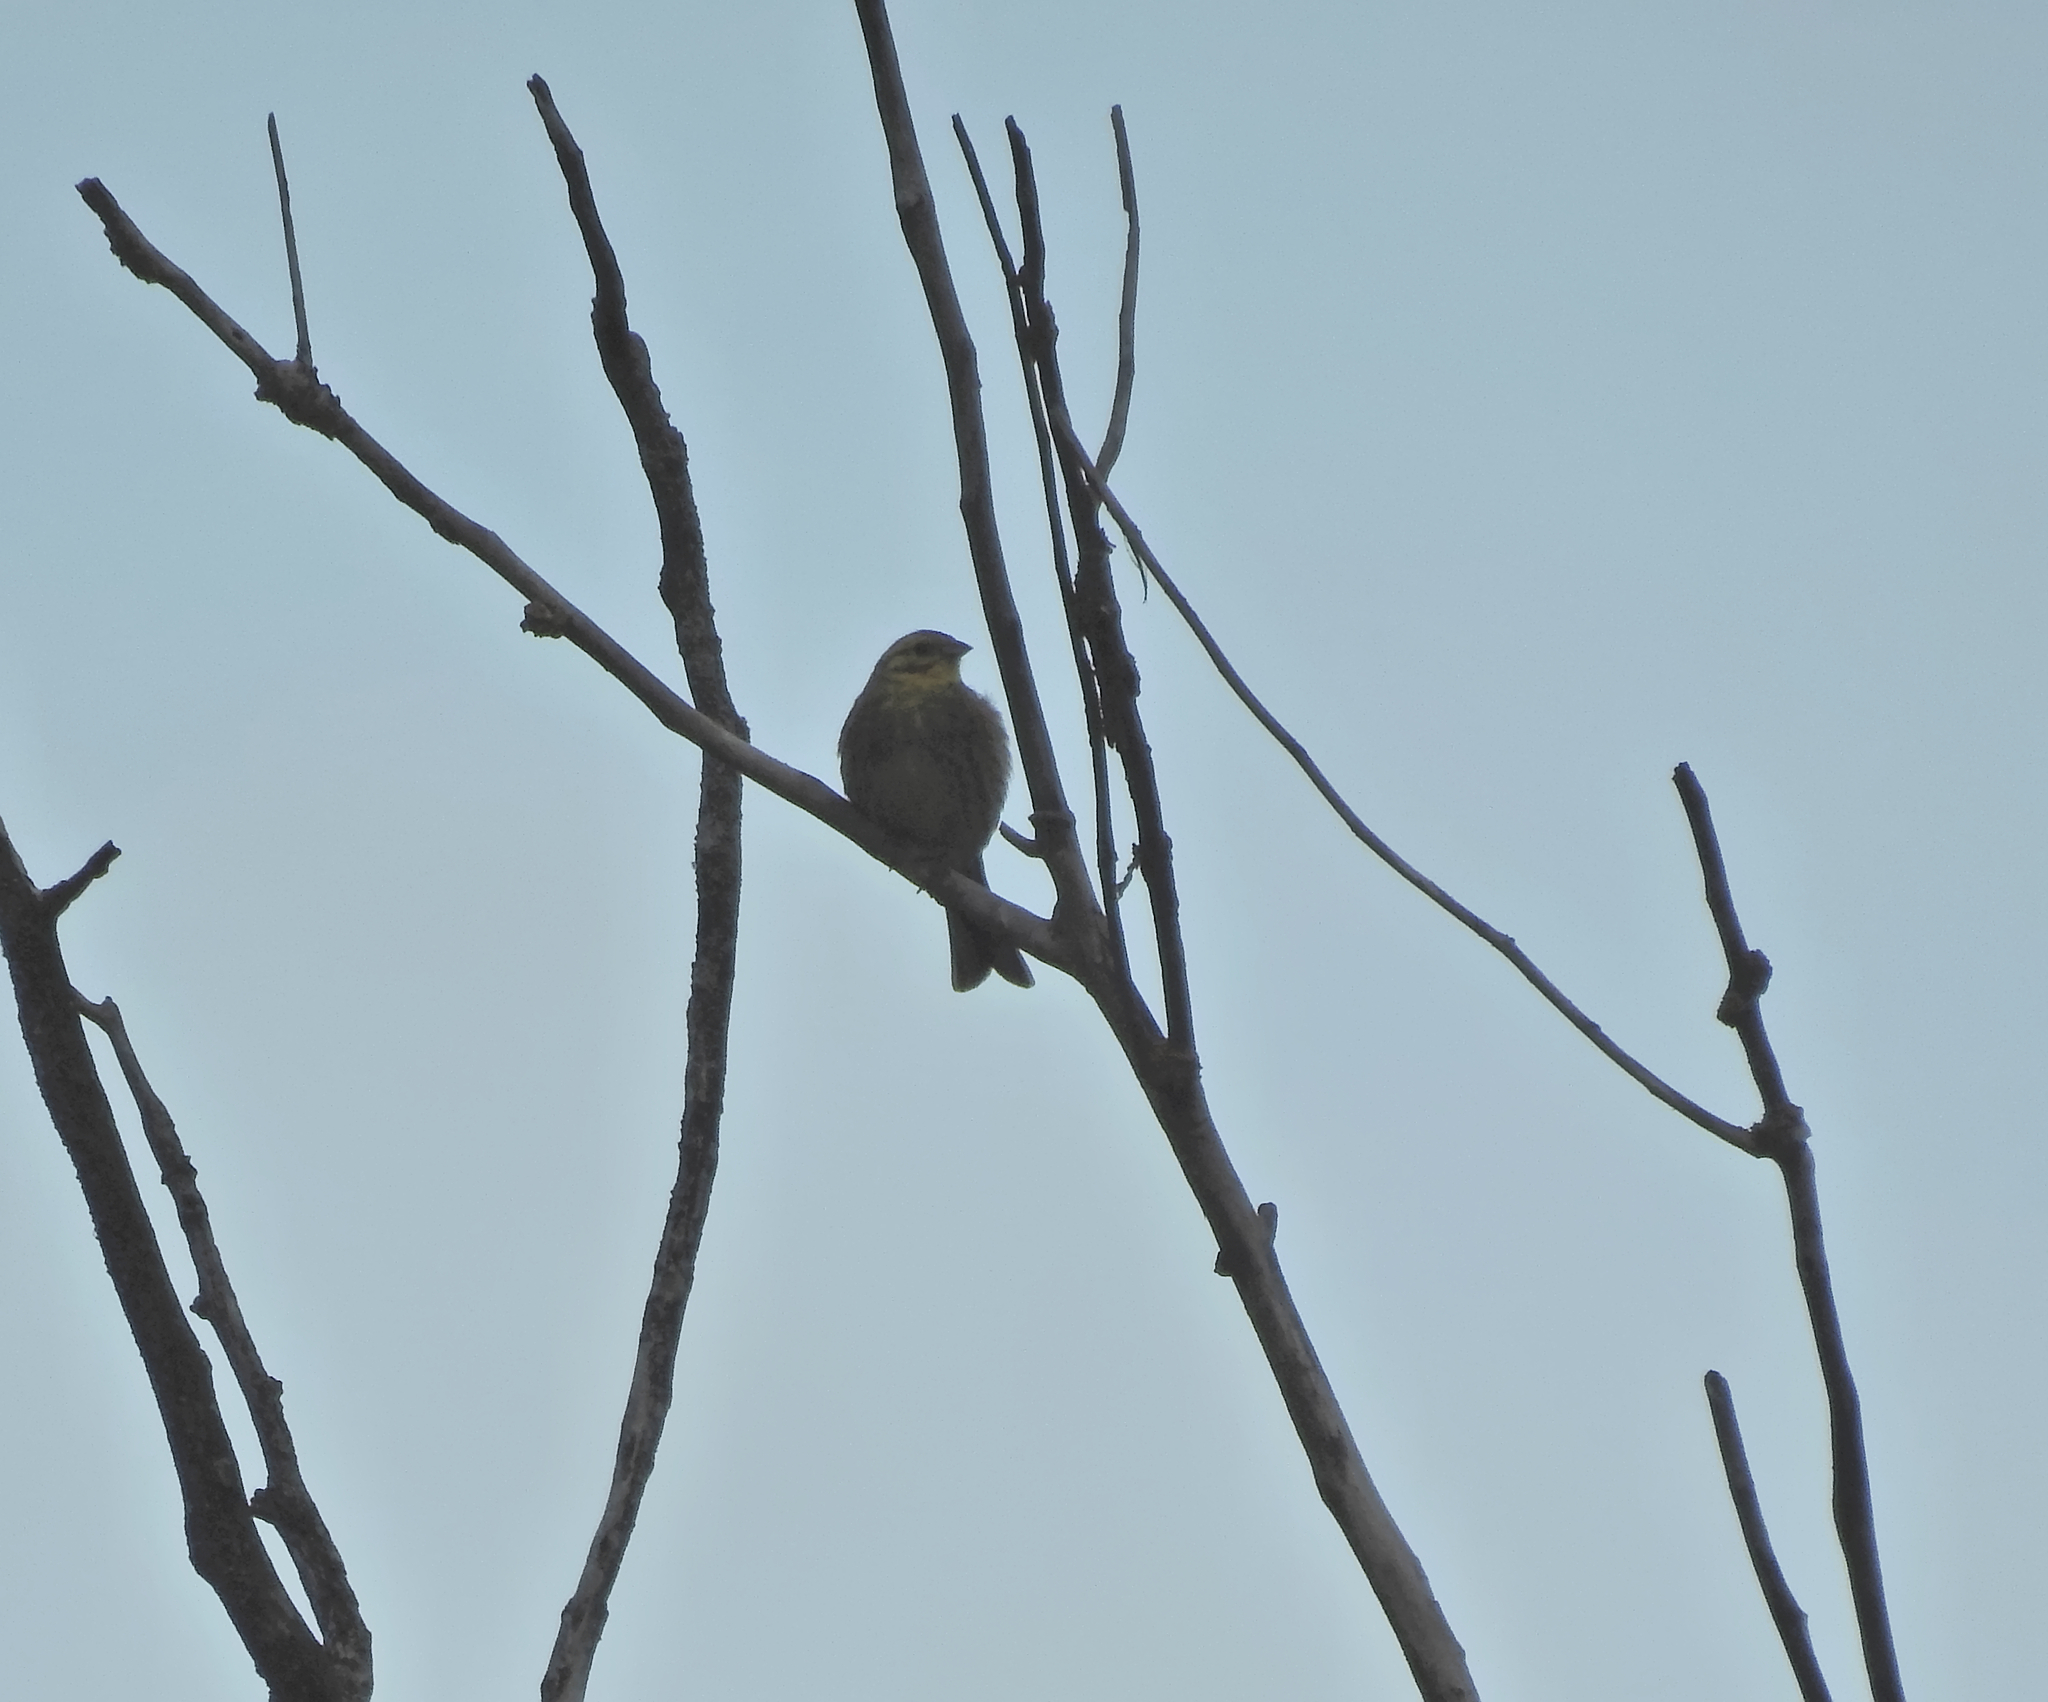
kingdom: Animalia
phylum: Chordata
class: Aves
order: Passeriformes
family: Emberizidae
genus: Emberiza
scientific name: Emberiza citrinella
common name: Yellowhammer
